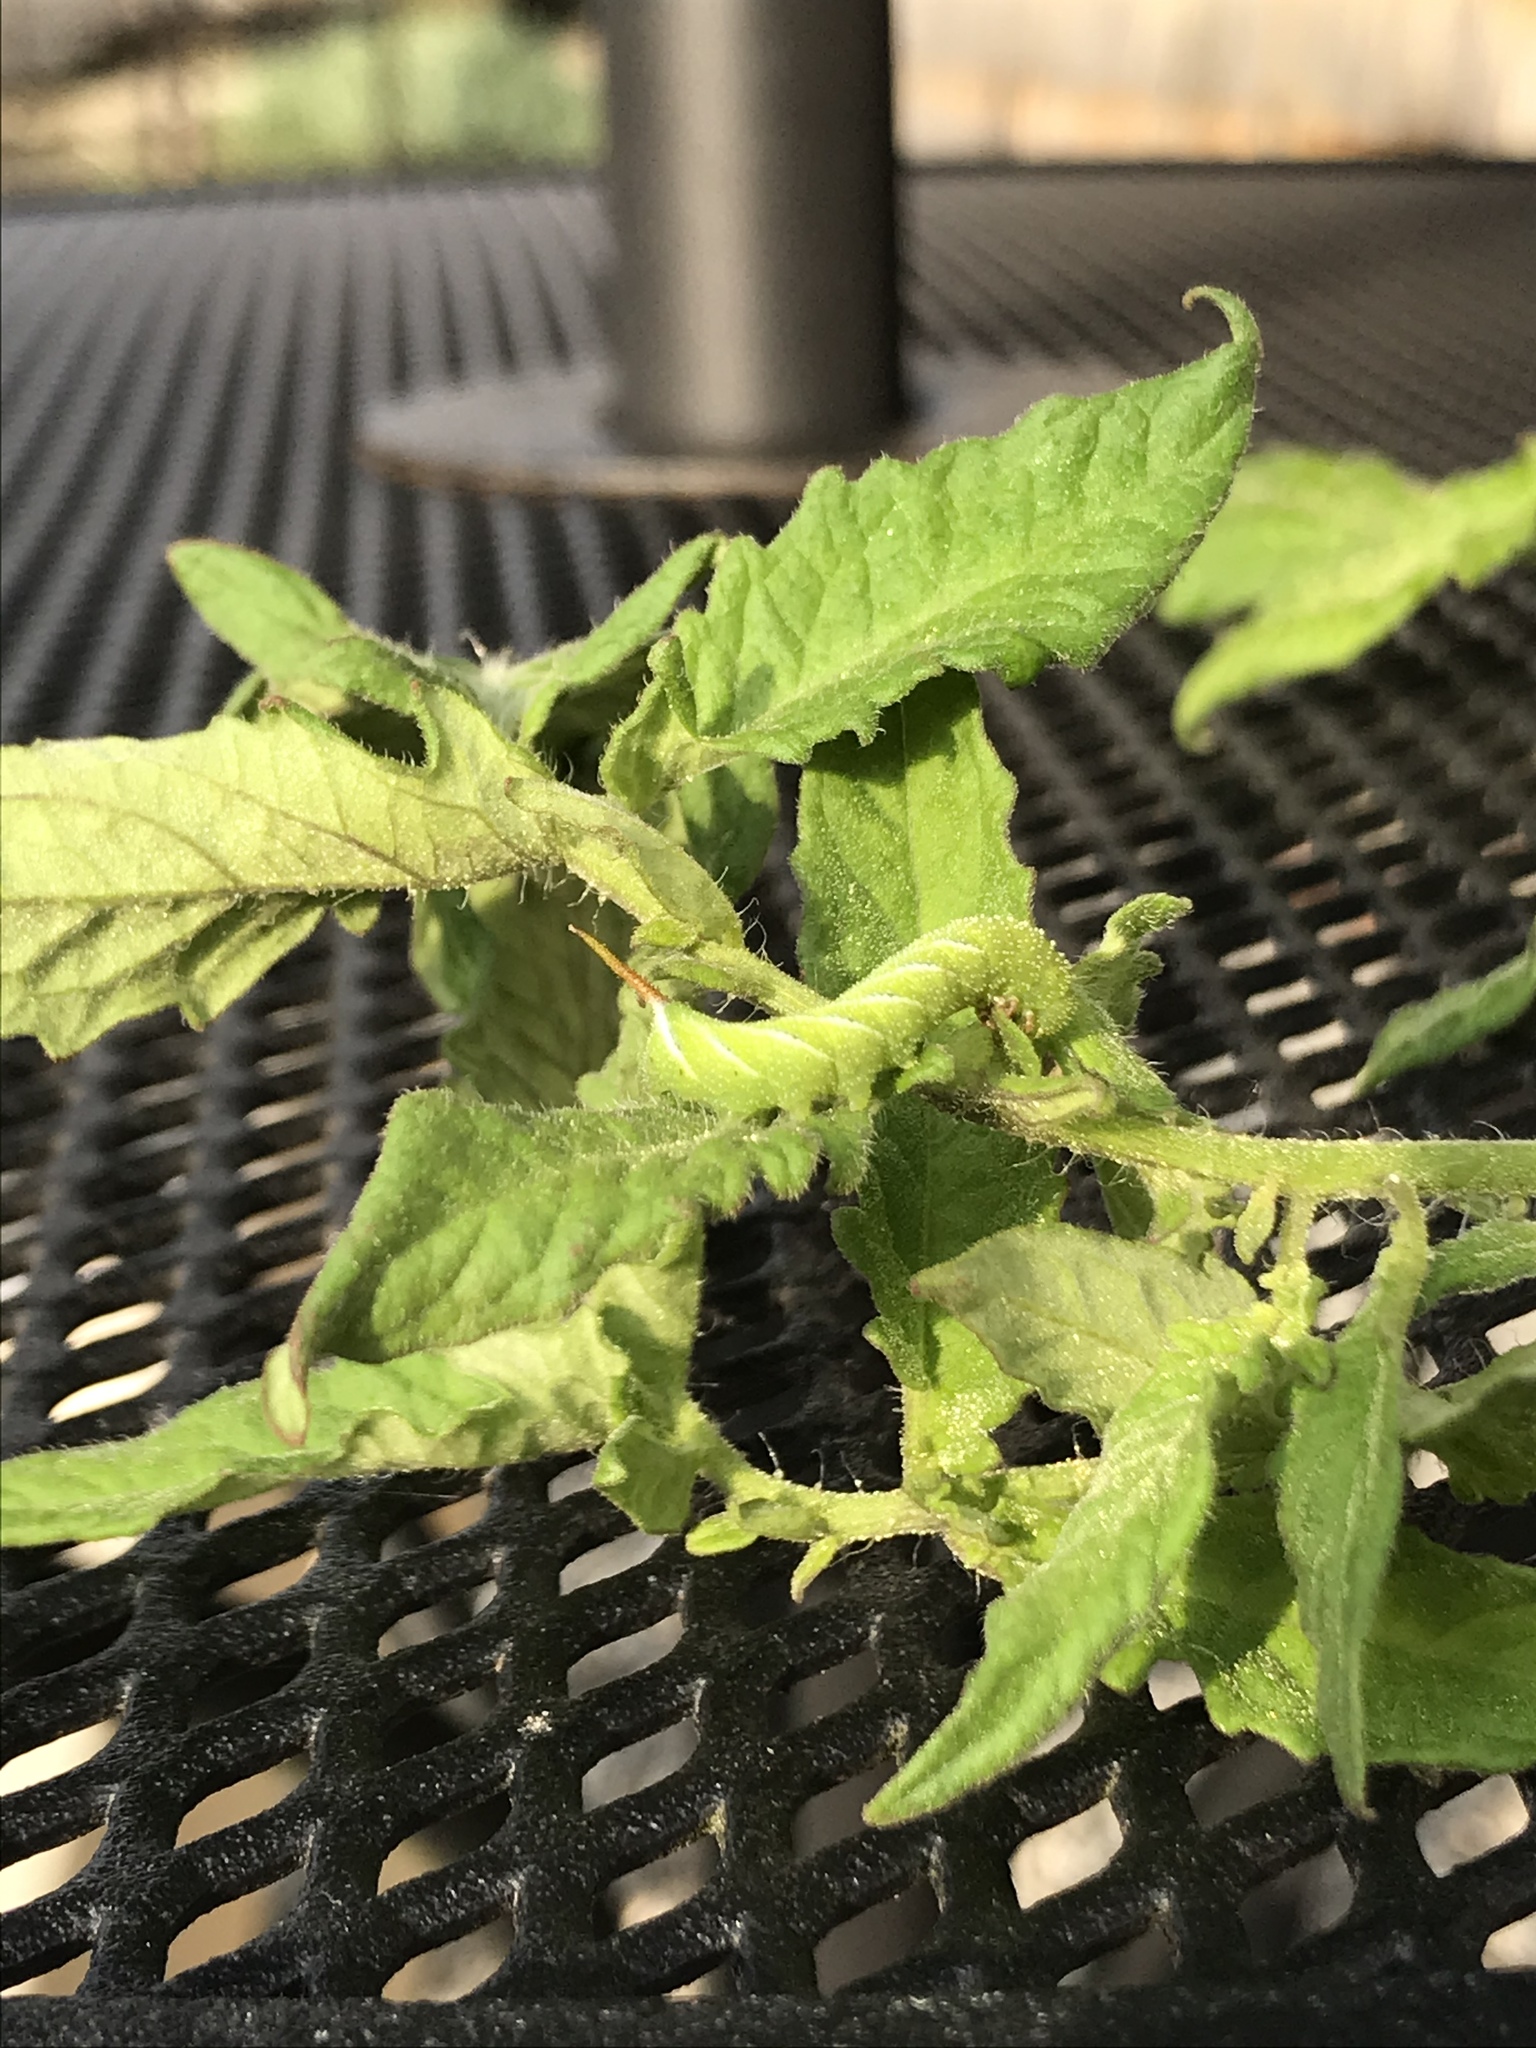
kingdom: Animalia
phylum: Arthropoda
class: Insecta
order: Lepidoptera
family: Sphingidae
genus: Manduca
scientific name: Manduca sexta
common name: Carolina sphinx
